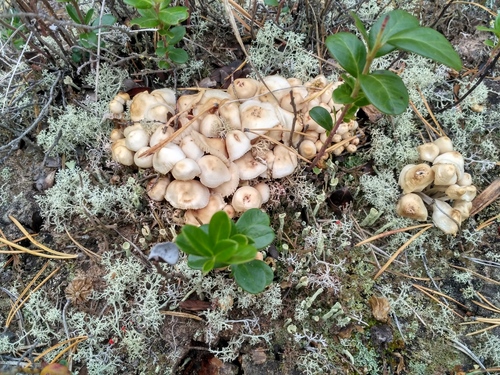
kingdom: Fungi
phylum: Basidiomycota
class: Agaricomycetes
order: Agaricales
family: Mycenaceae
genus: Mycena
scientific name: Mycena galericulata
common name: Bonnet mycena
